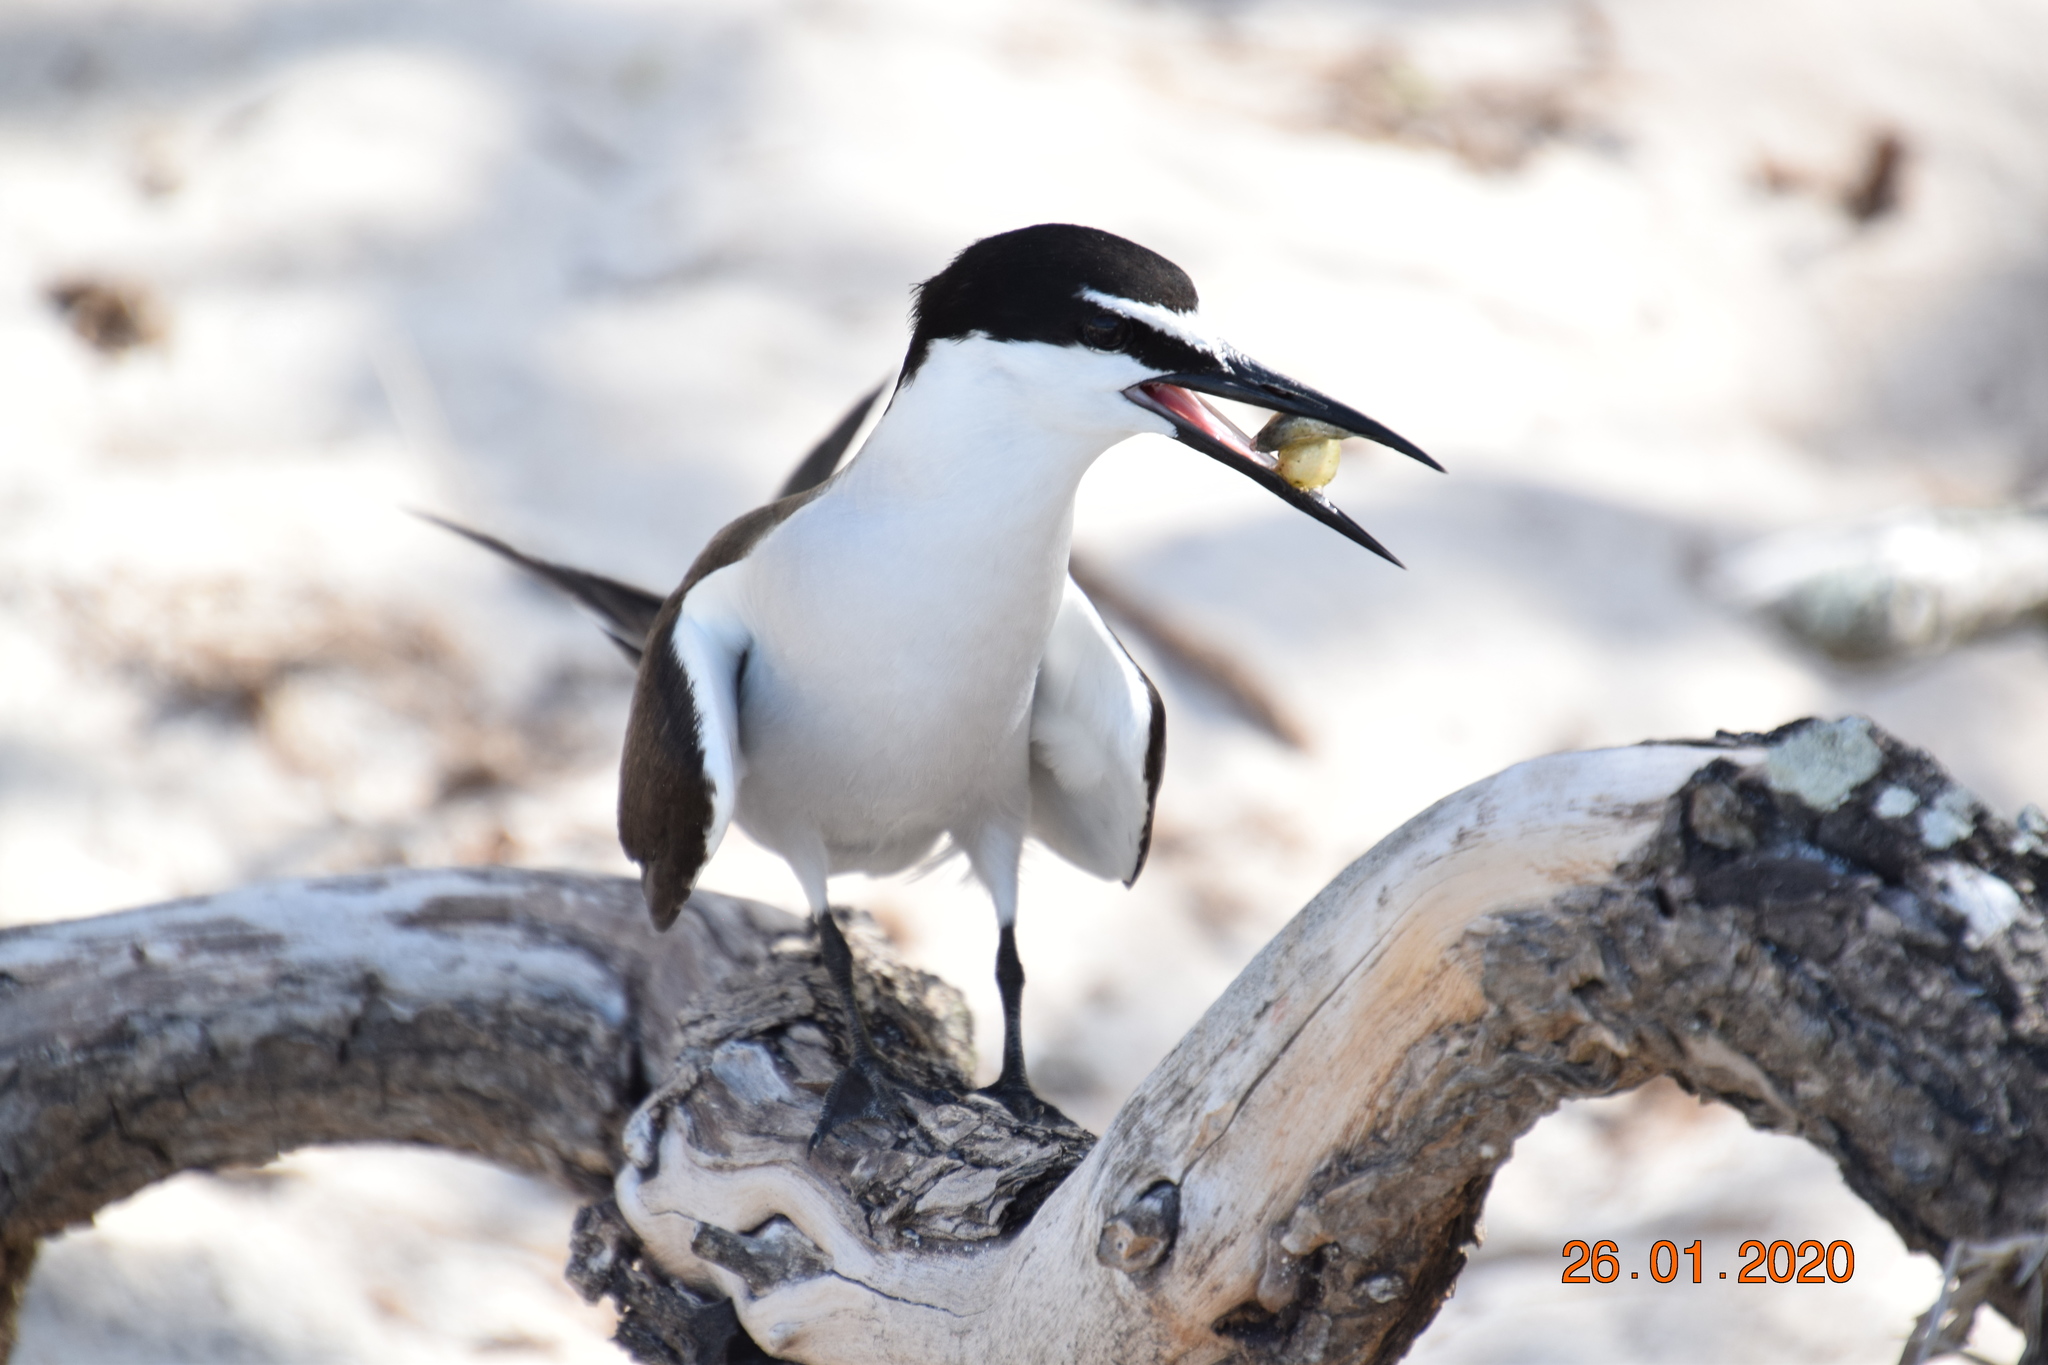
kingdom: Animalia
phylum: Chordata
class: Aves
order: Charadriiformes
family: Laridae
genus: Onychoprion
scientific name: Onychoprion anaethetus
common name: Bridled tern
